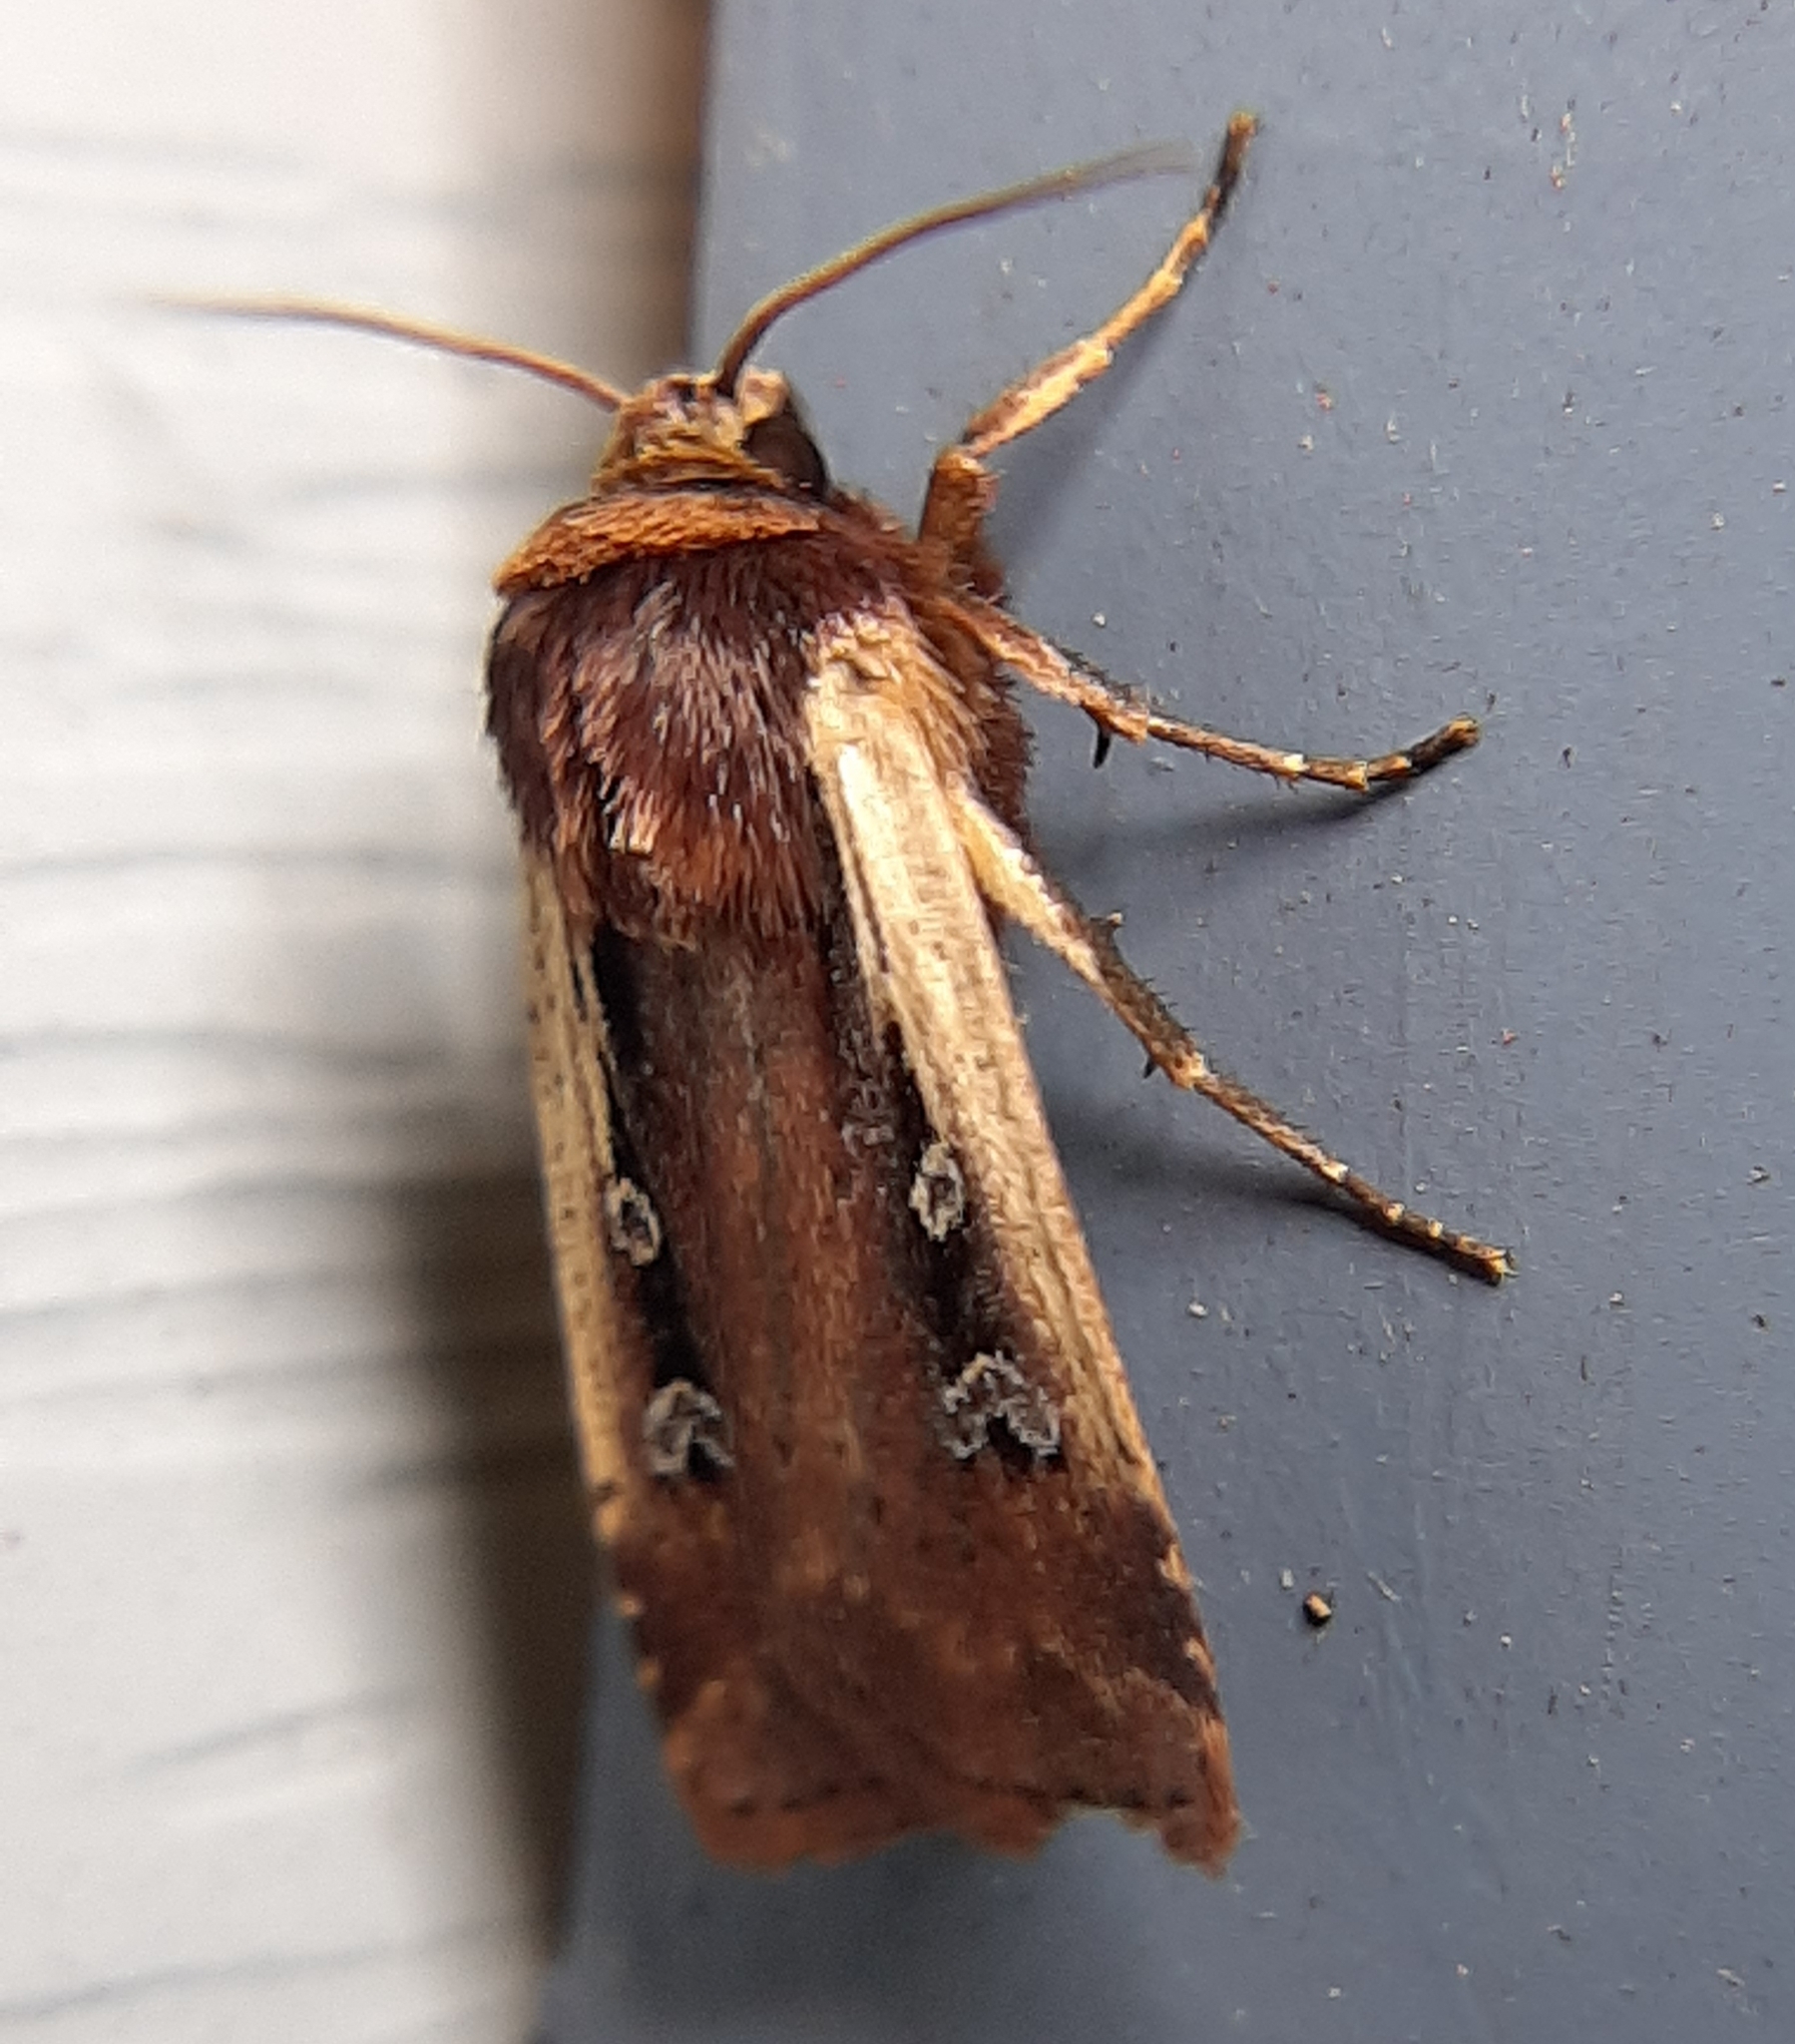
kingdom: Animalia
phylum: Arthropoda
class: Insecta
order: Lepidoptera
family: Noctuidae
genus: Ochropleura
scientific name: Ochropleura implecta
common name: Flame-shouldered dart
